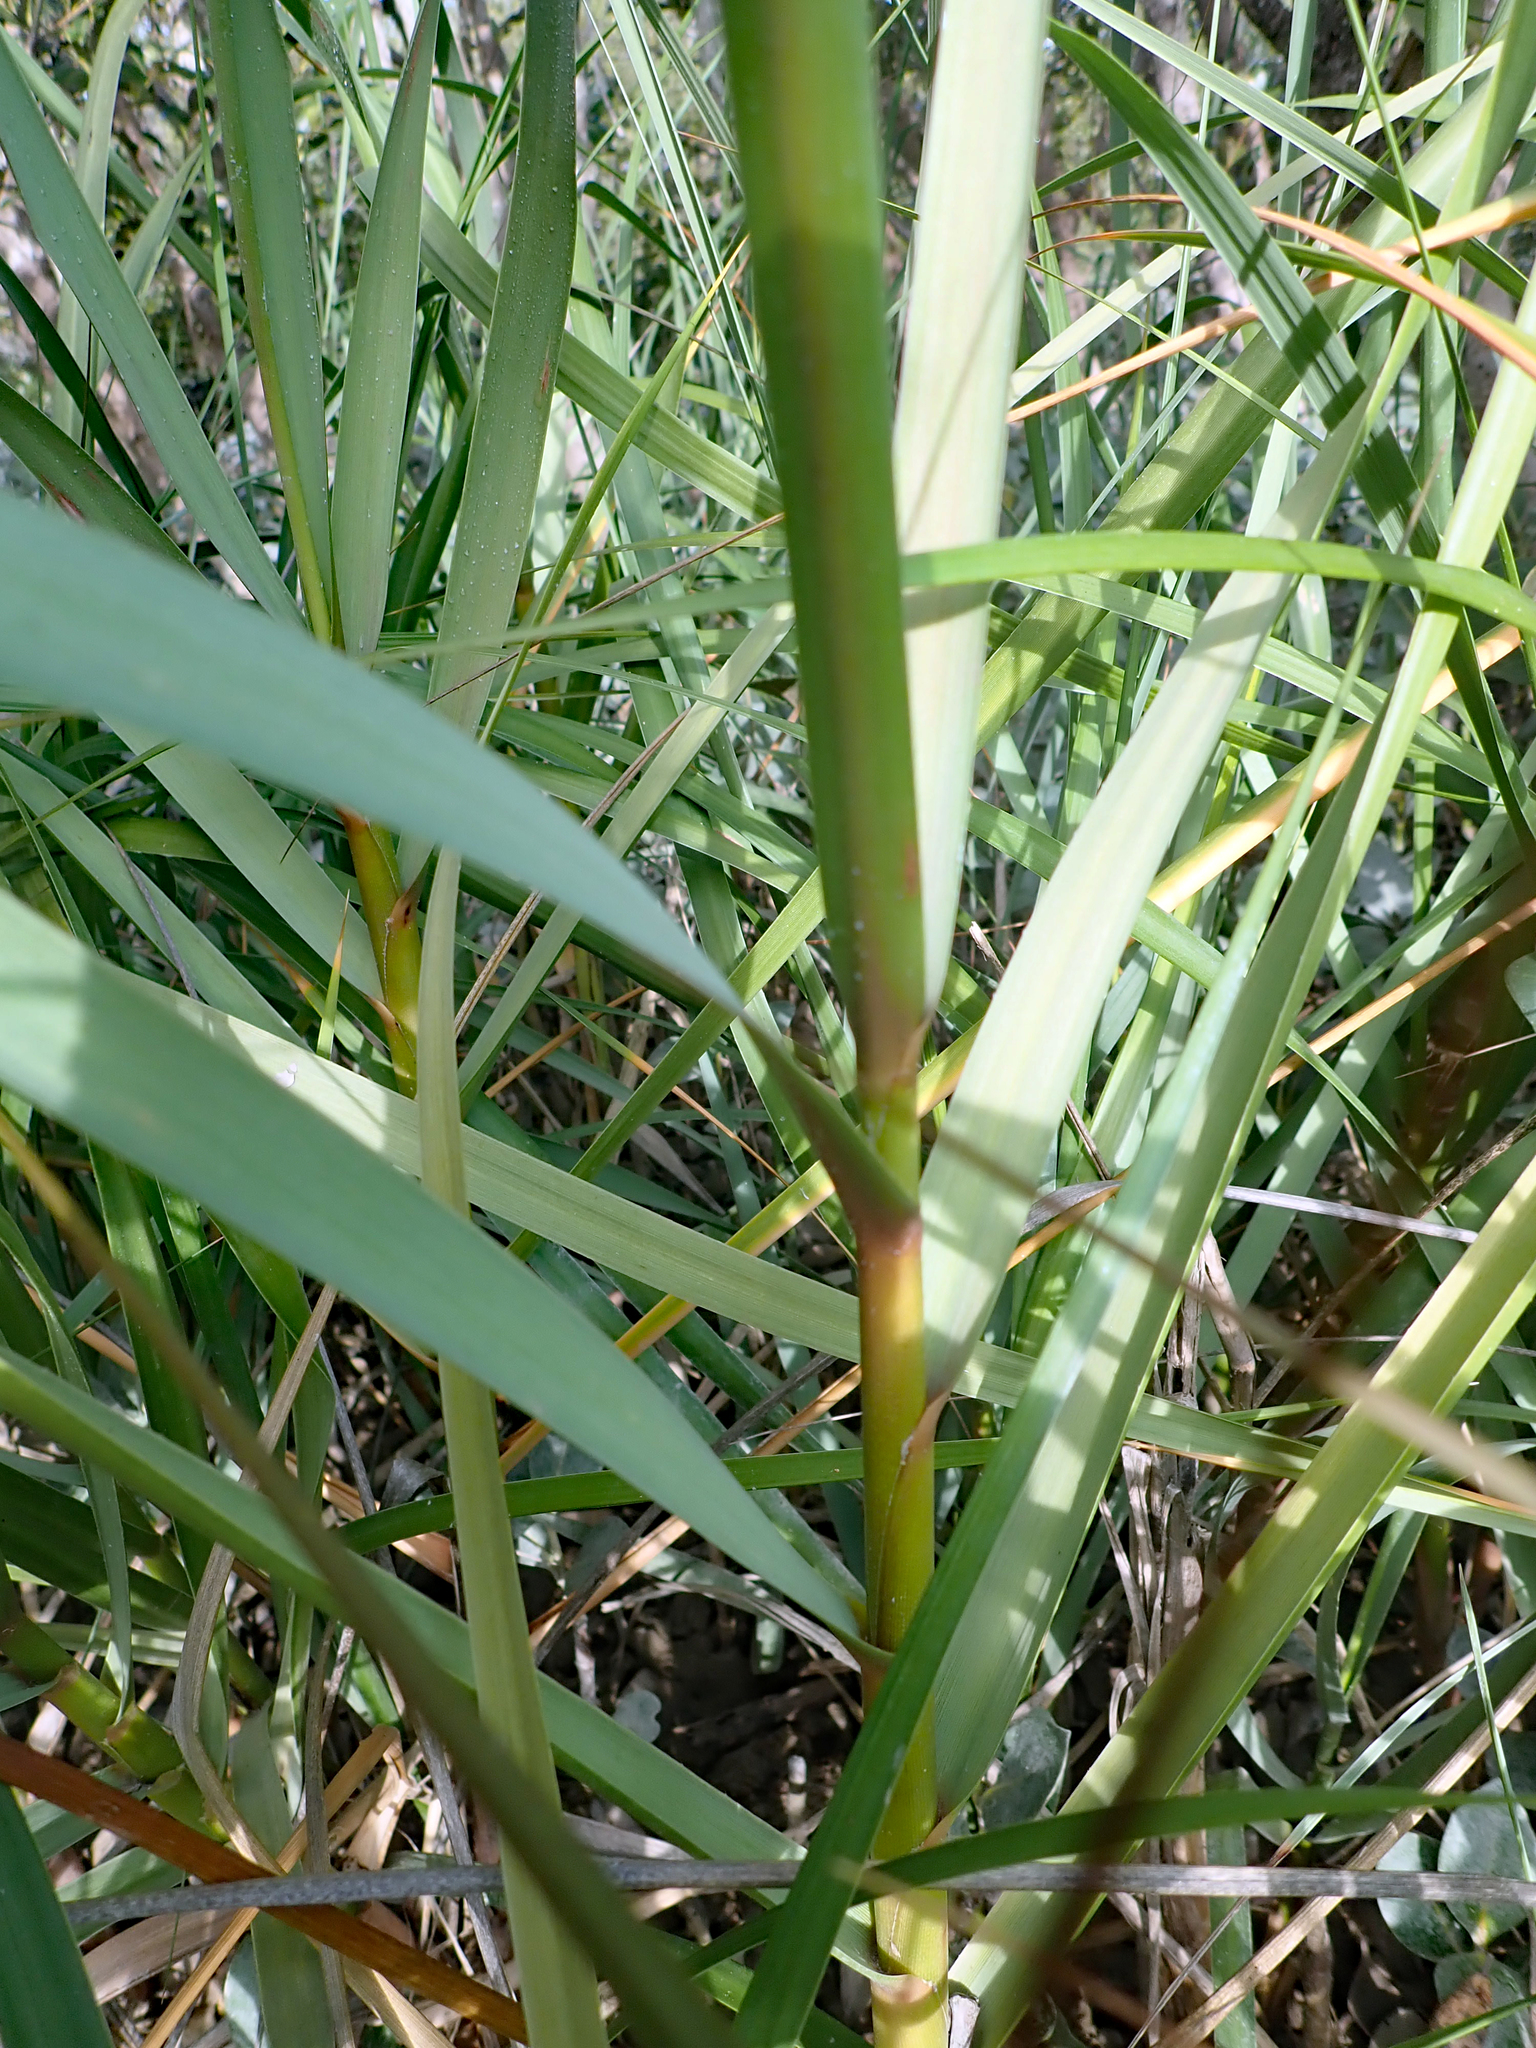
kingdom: Plantae
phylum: Tracheophyta
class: Liliopsida
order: Poales
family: Poaceae
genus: Sporobolus
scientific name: Sporobolus alterniflorus
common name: Atlantic cordgrass
